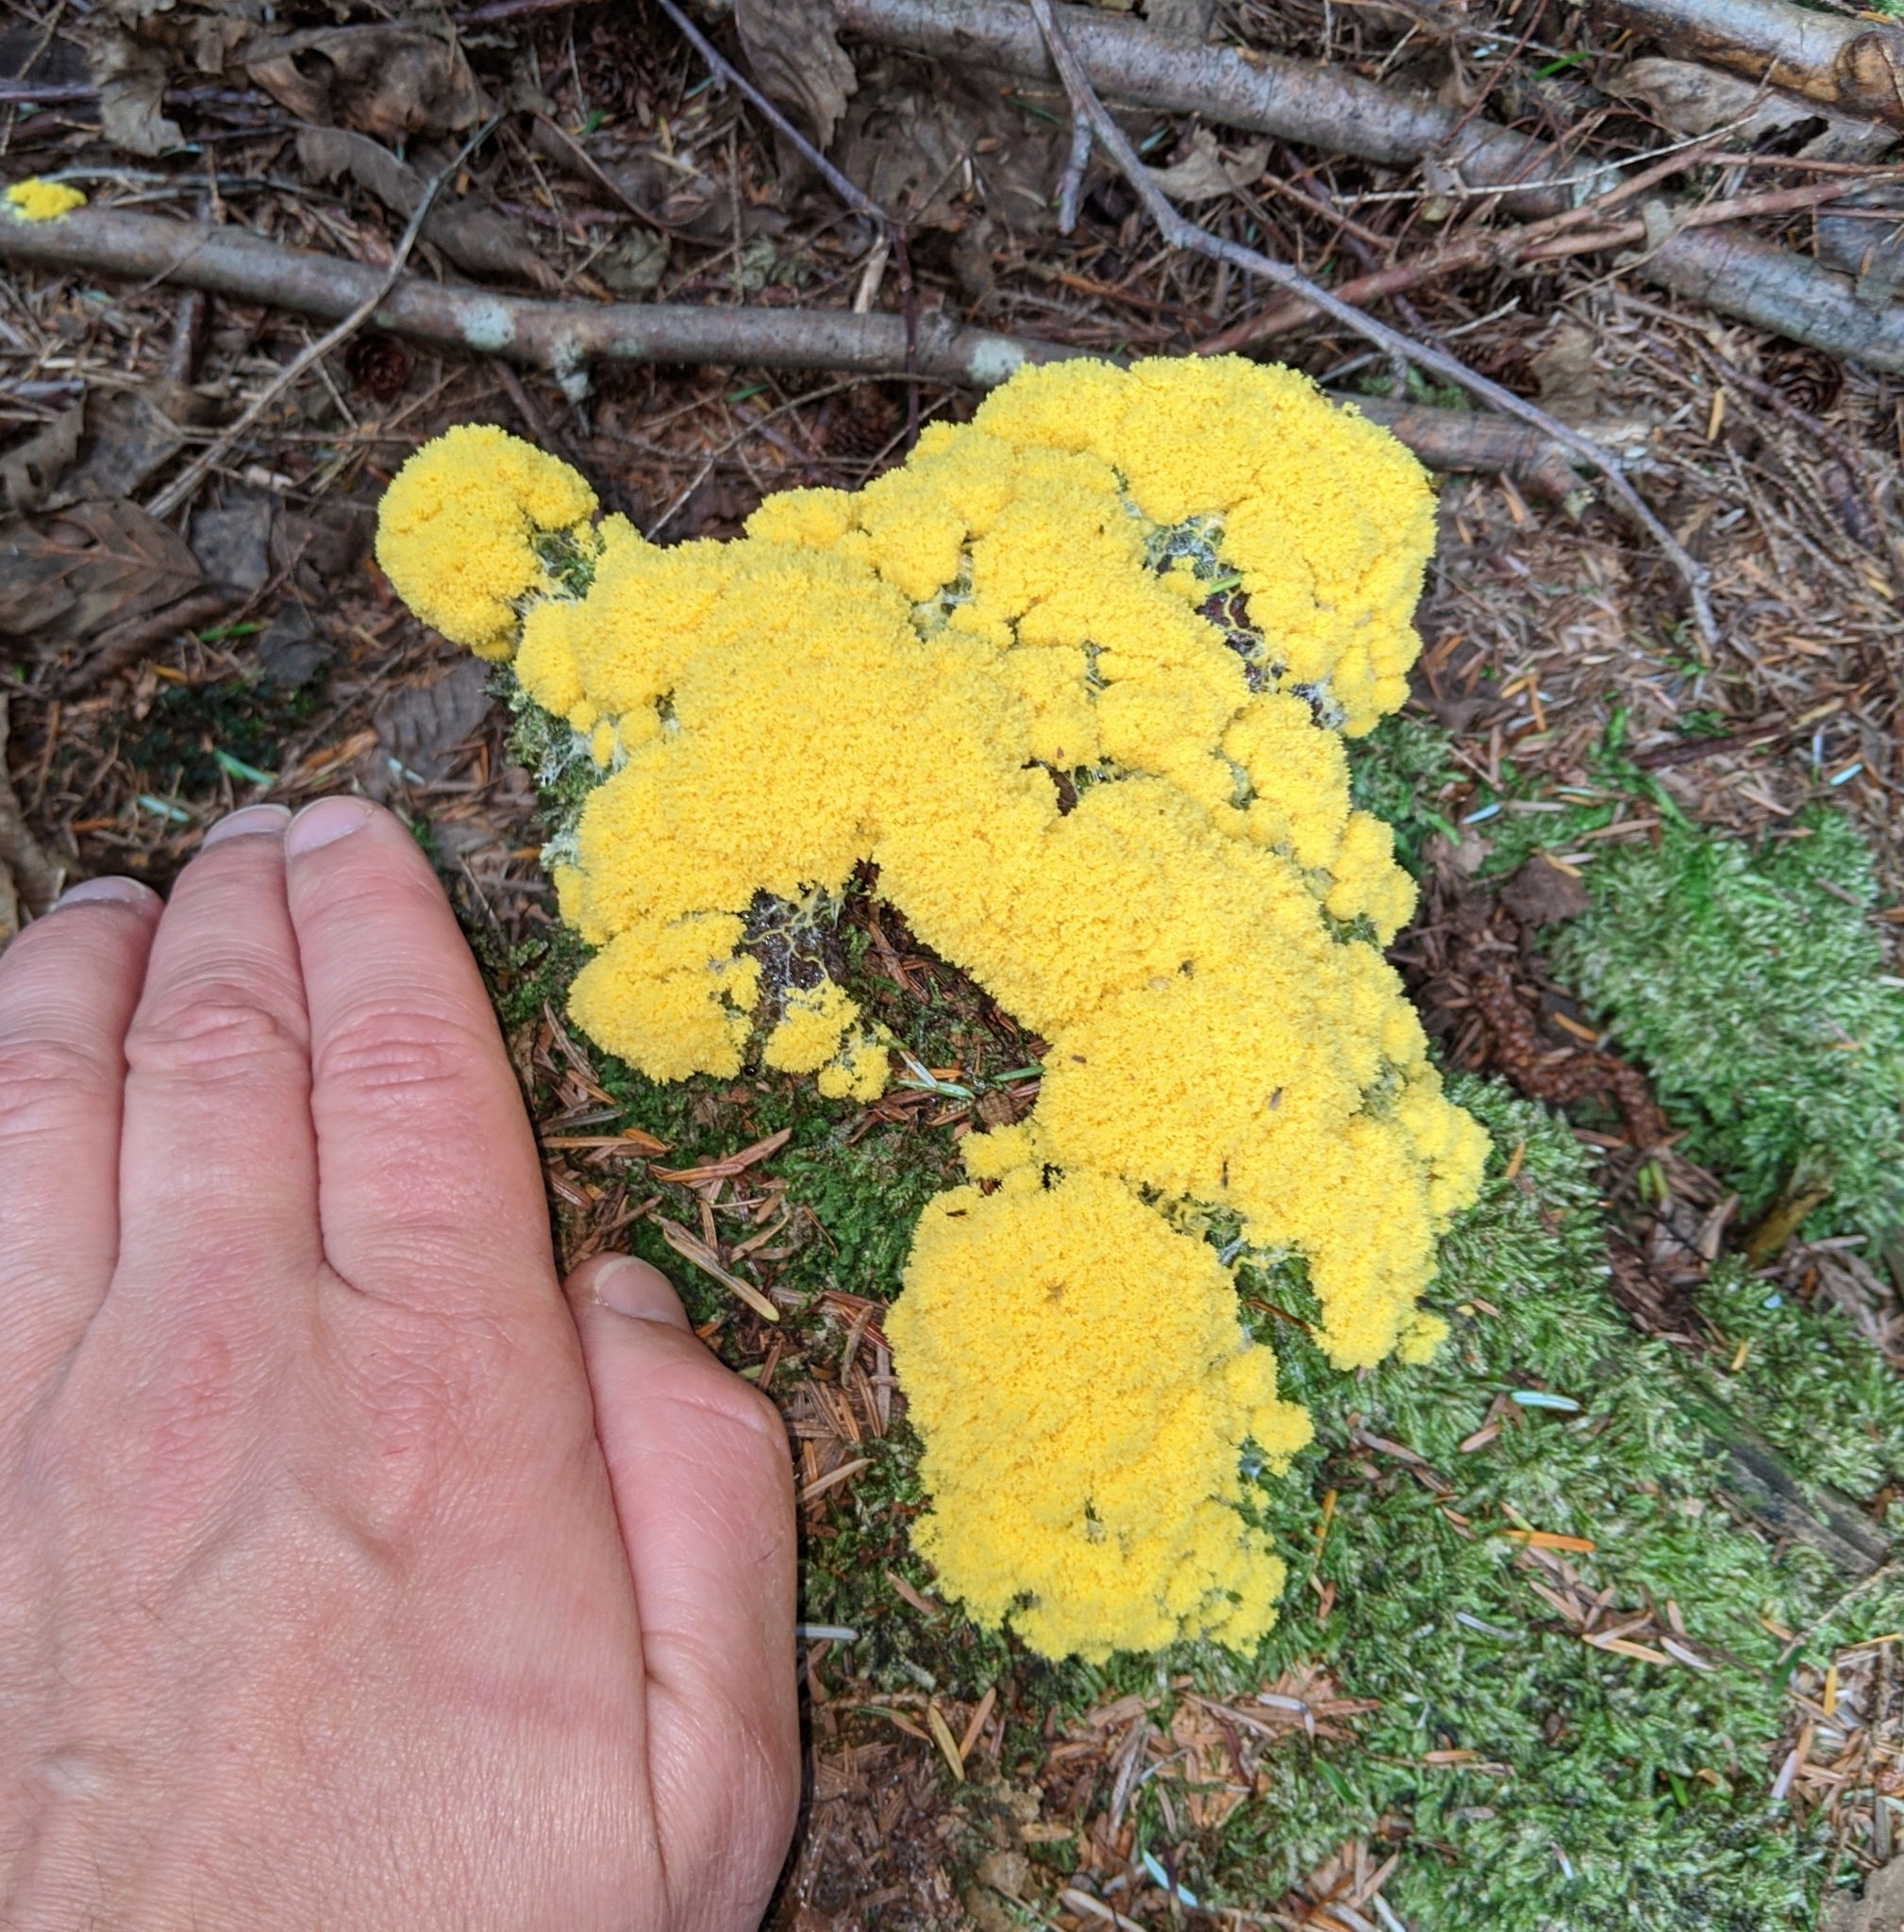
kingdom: Protozoa
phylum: Mycetozoa
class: Myxomycetes
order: Physarales
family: Physaraceae
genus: Fuligo
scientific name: Fuligo septica
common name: Dog vomit slime mold
